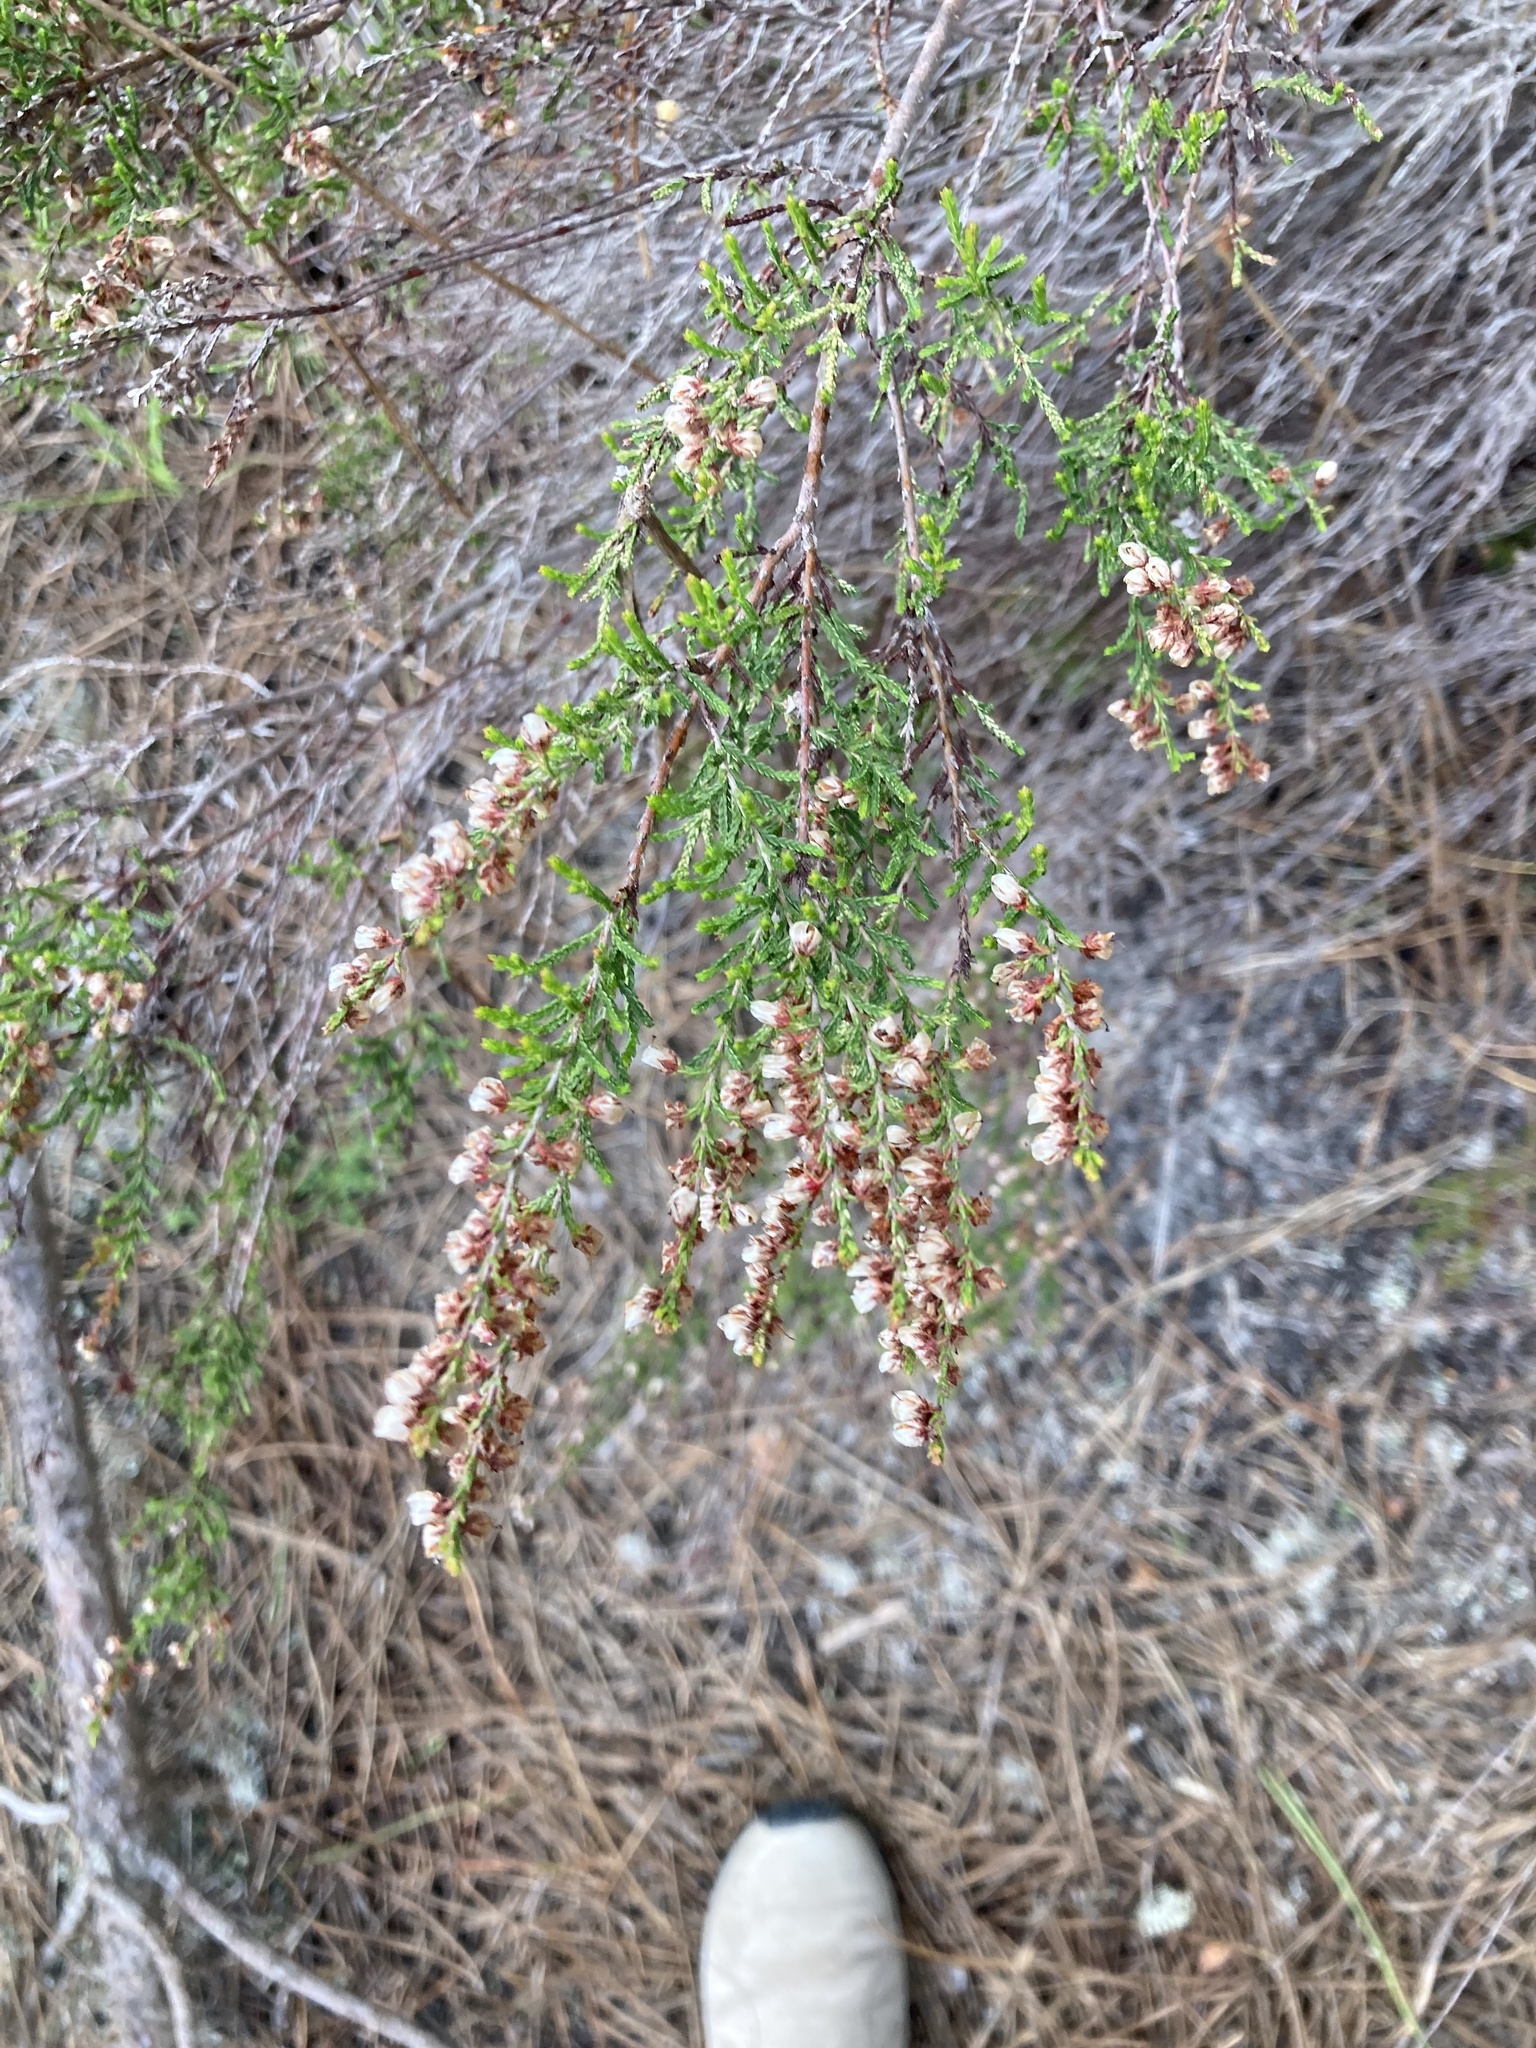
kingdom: Plantae
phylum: Tracheophyta
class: Magnoliopsida
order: Ericales
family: Ericaceae
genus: Calluna
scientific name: Calluna vulgaris
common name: Heather
